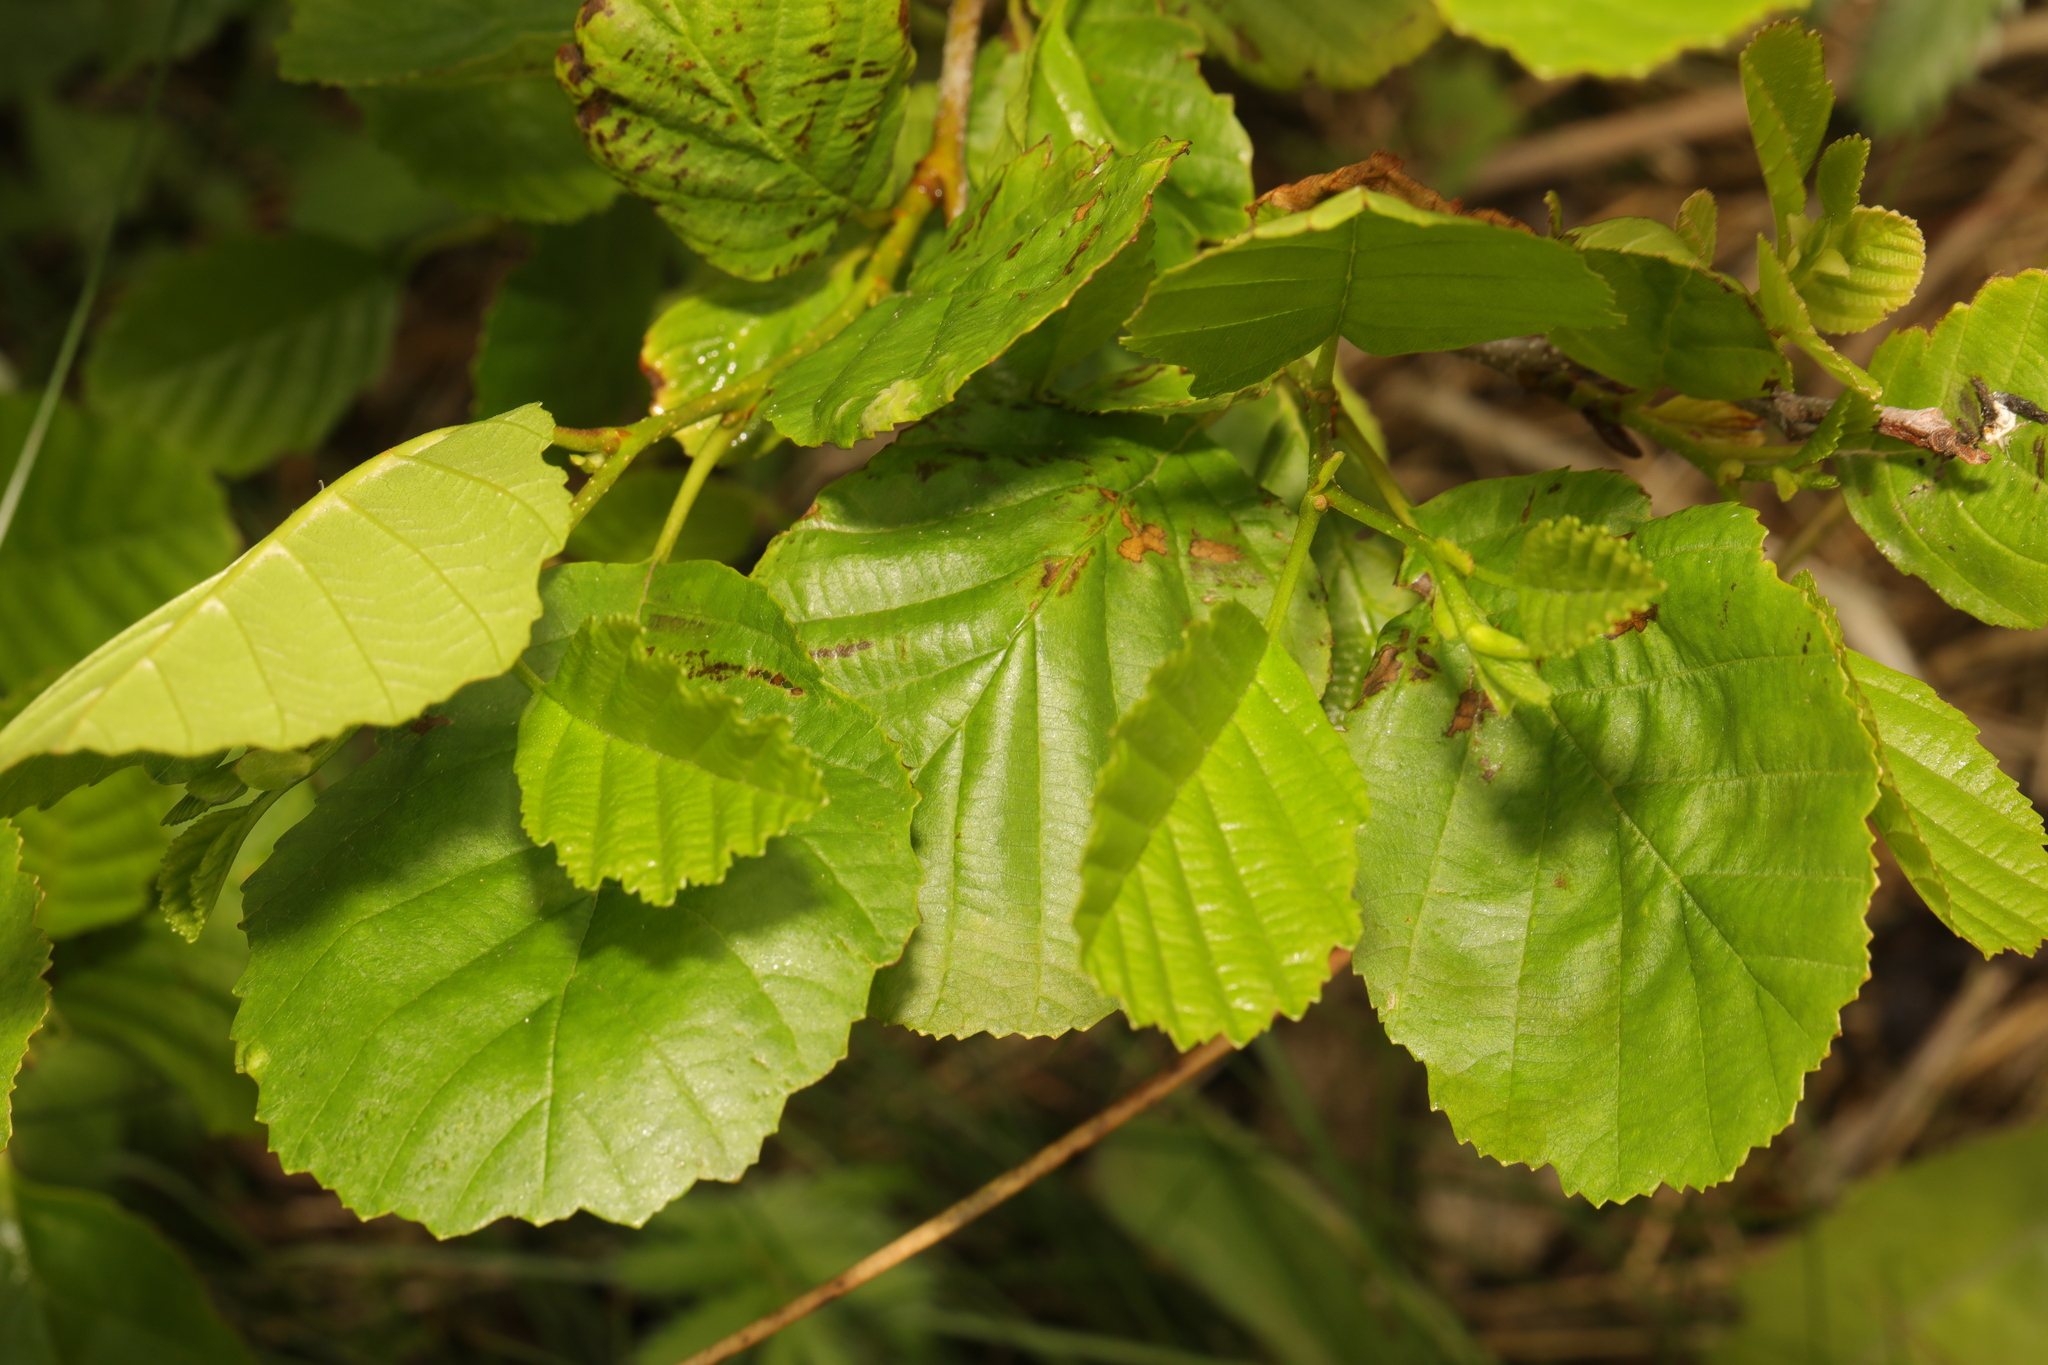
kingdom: Plantae
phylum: Tracheophyta
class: Magnoliopsida
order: Fagales
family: Betulaceae
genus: Alnus
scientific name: Alnus glutinosa
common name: Black alder
